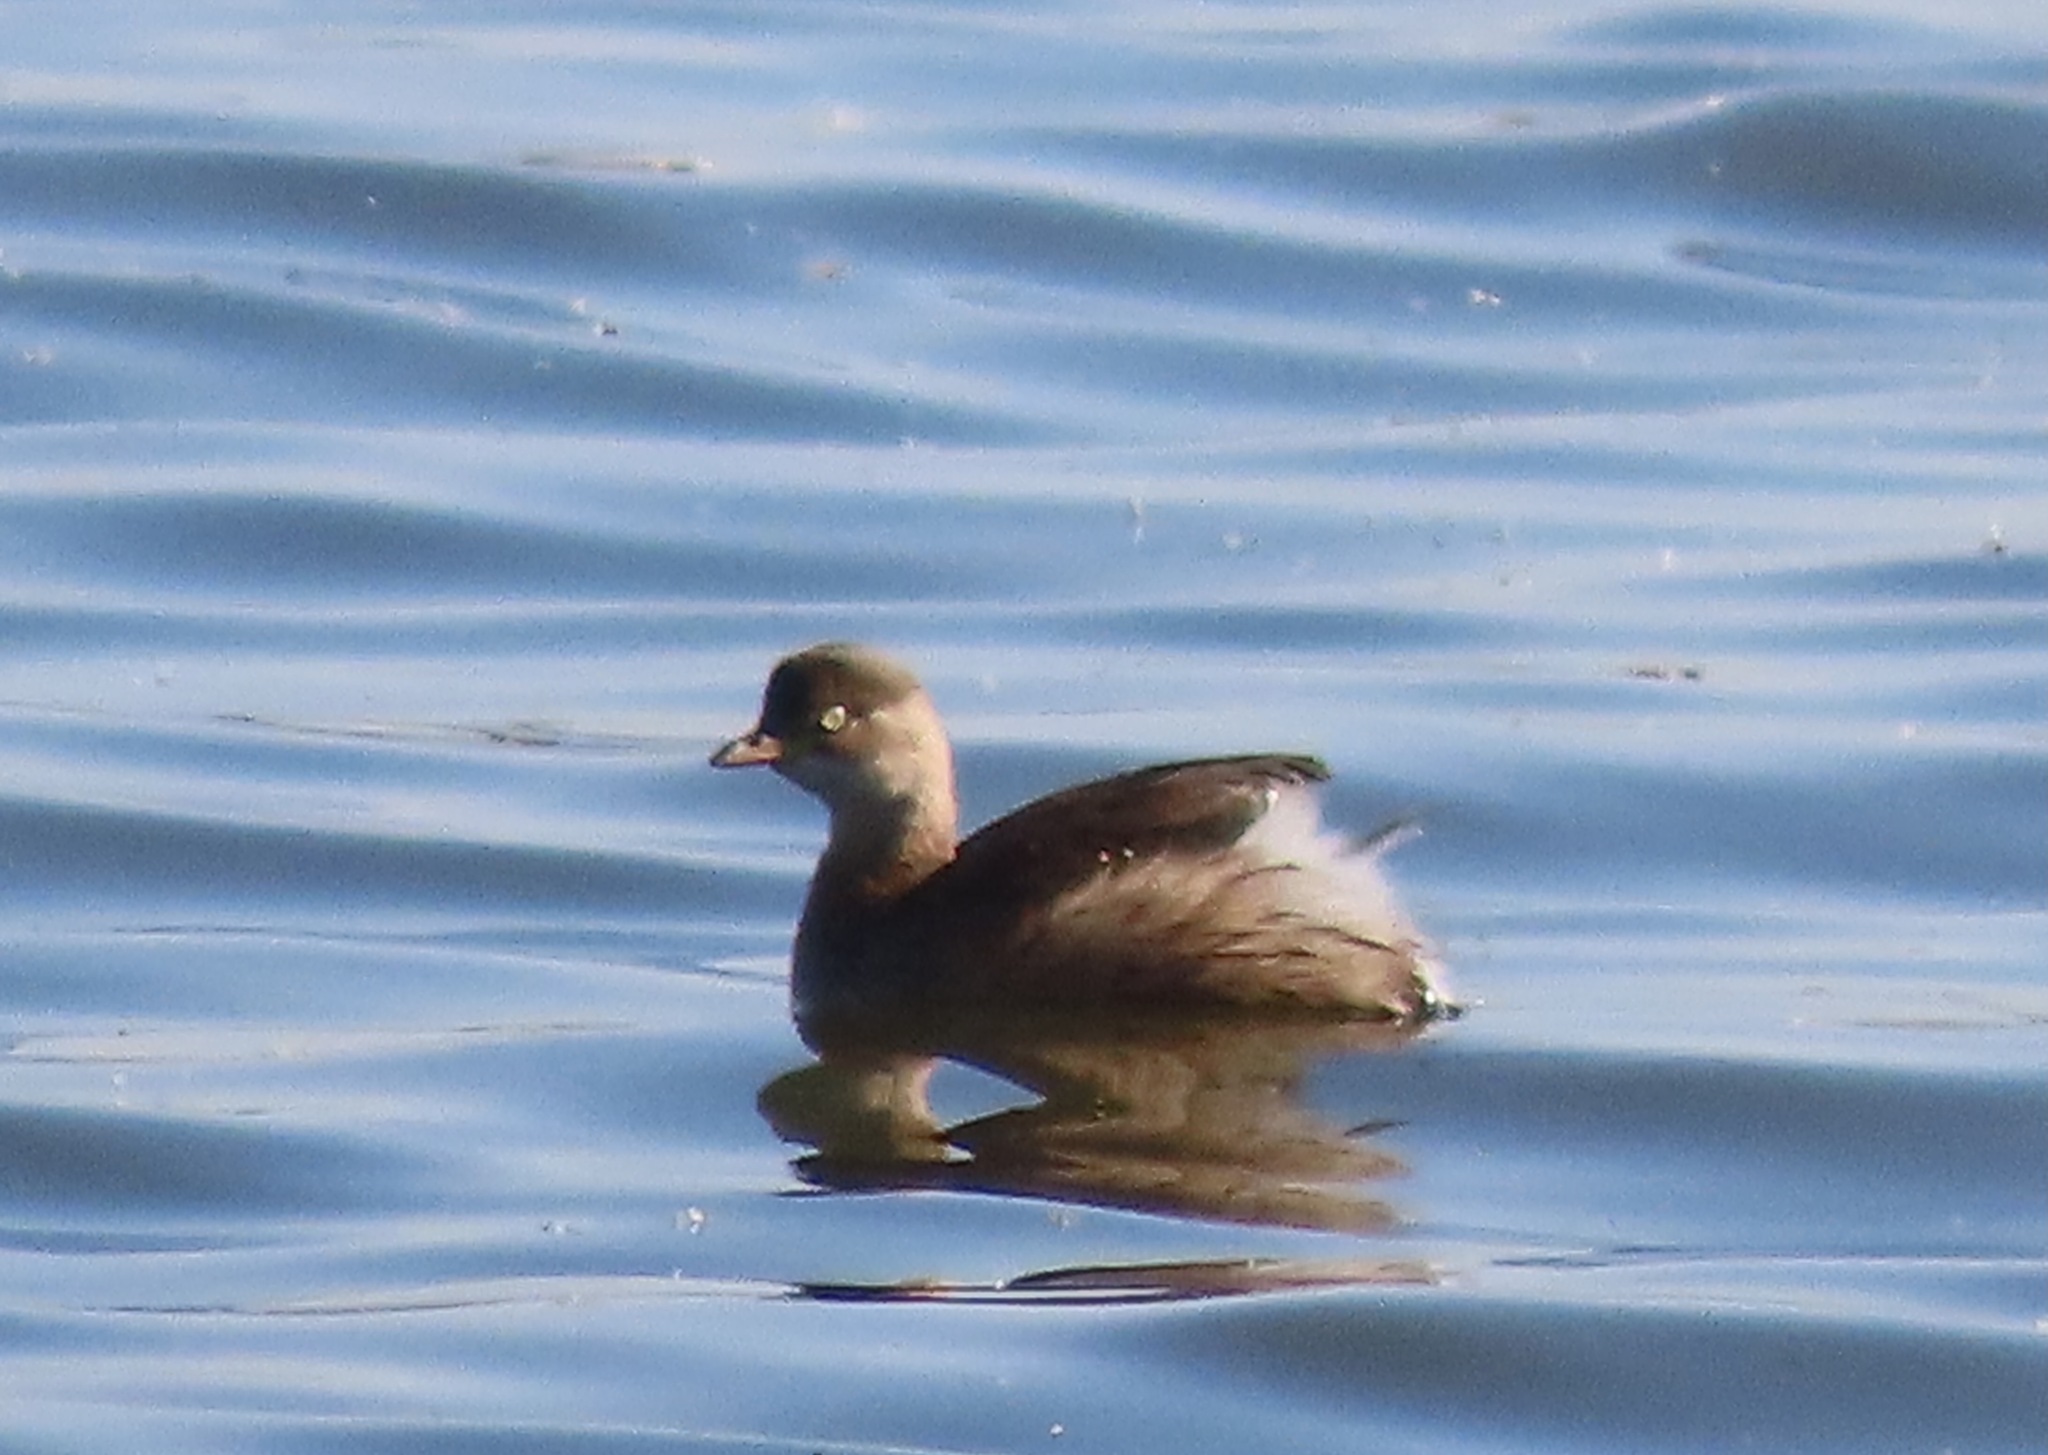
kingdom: Animalia
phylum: Chordata
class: Aves
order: Podicipediformes
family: Podicipedidae
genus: Tachybaptus
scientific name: Tachybaptus ruficollis
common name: Little grebe
